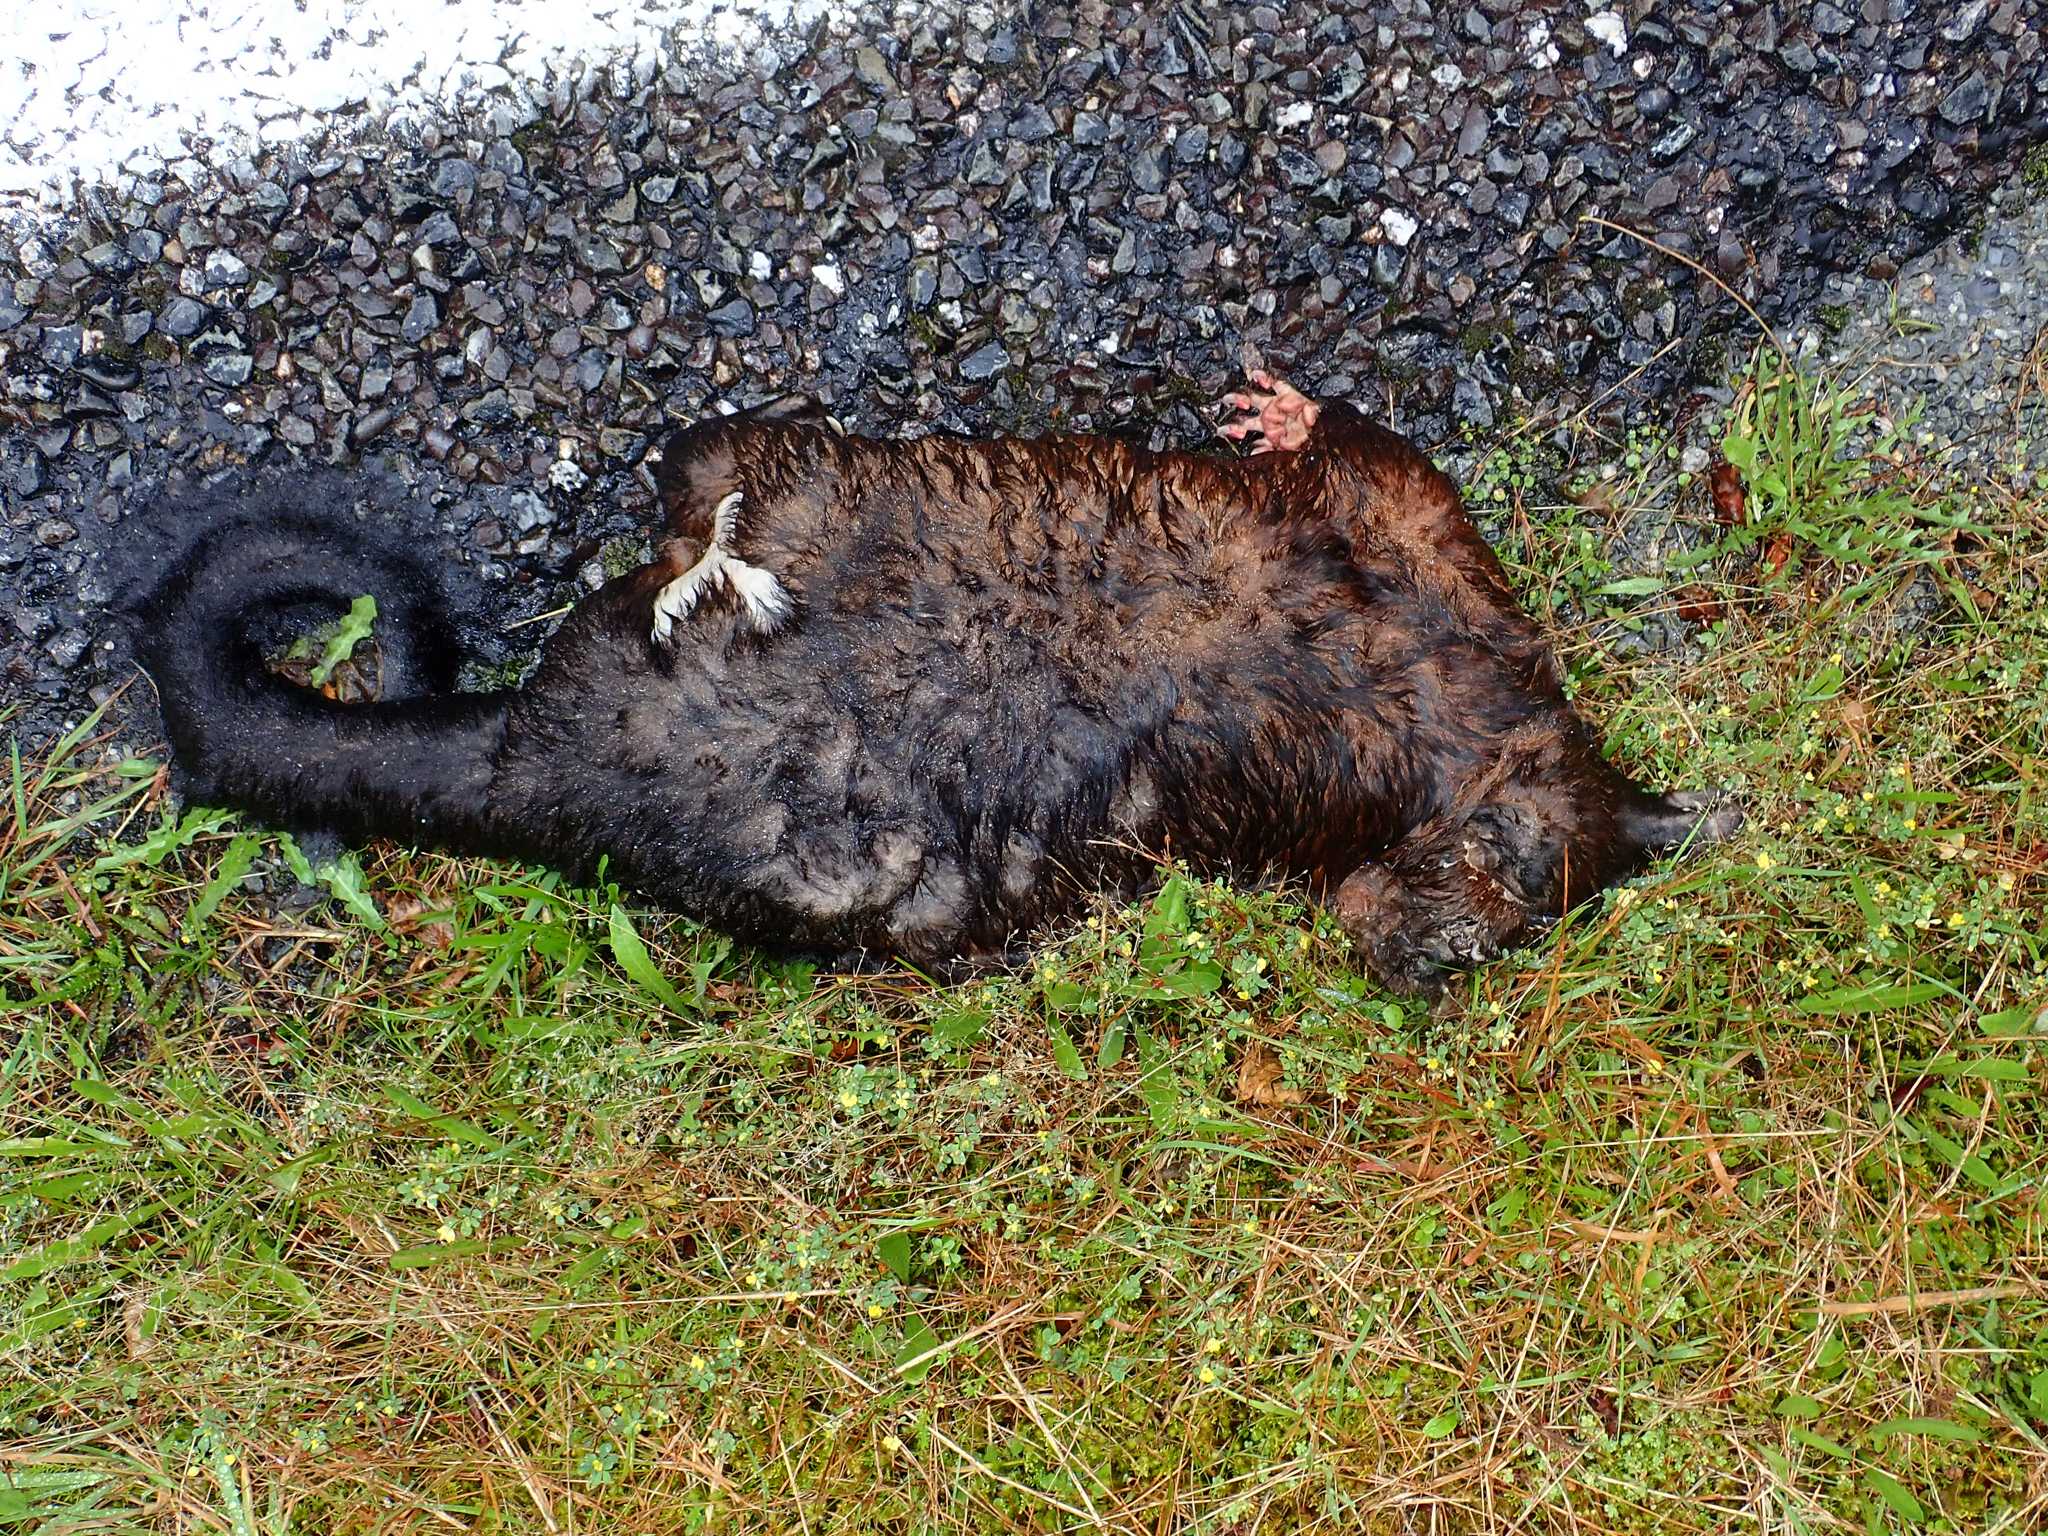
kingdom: Animalia
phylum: Chordata
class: Mammalia
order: Diprotodontia
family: Phalangeridae
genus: Trichosurus
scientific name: Trichosurus vulpecula
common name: Common brushtail
